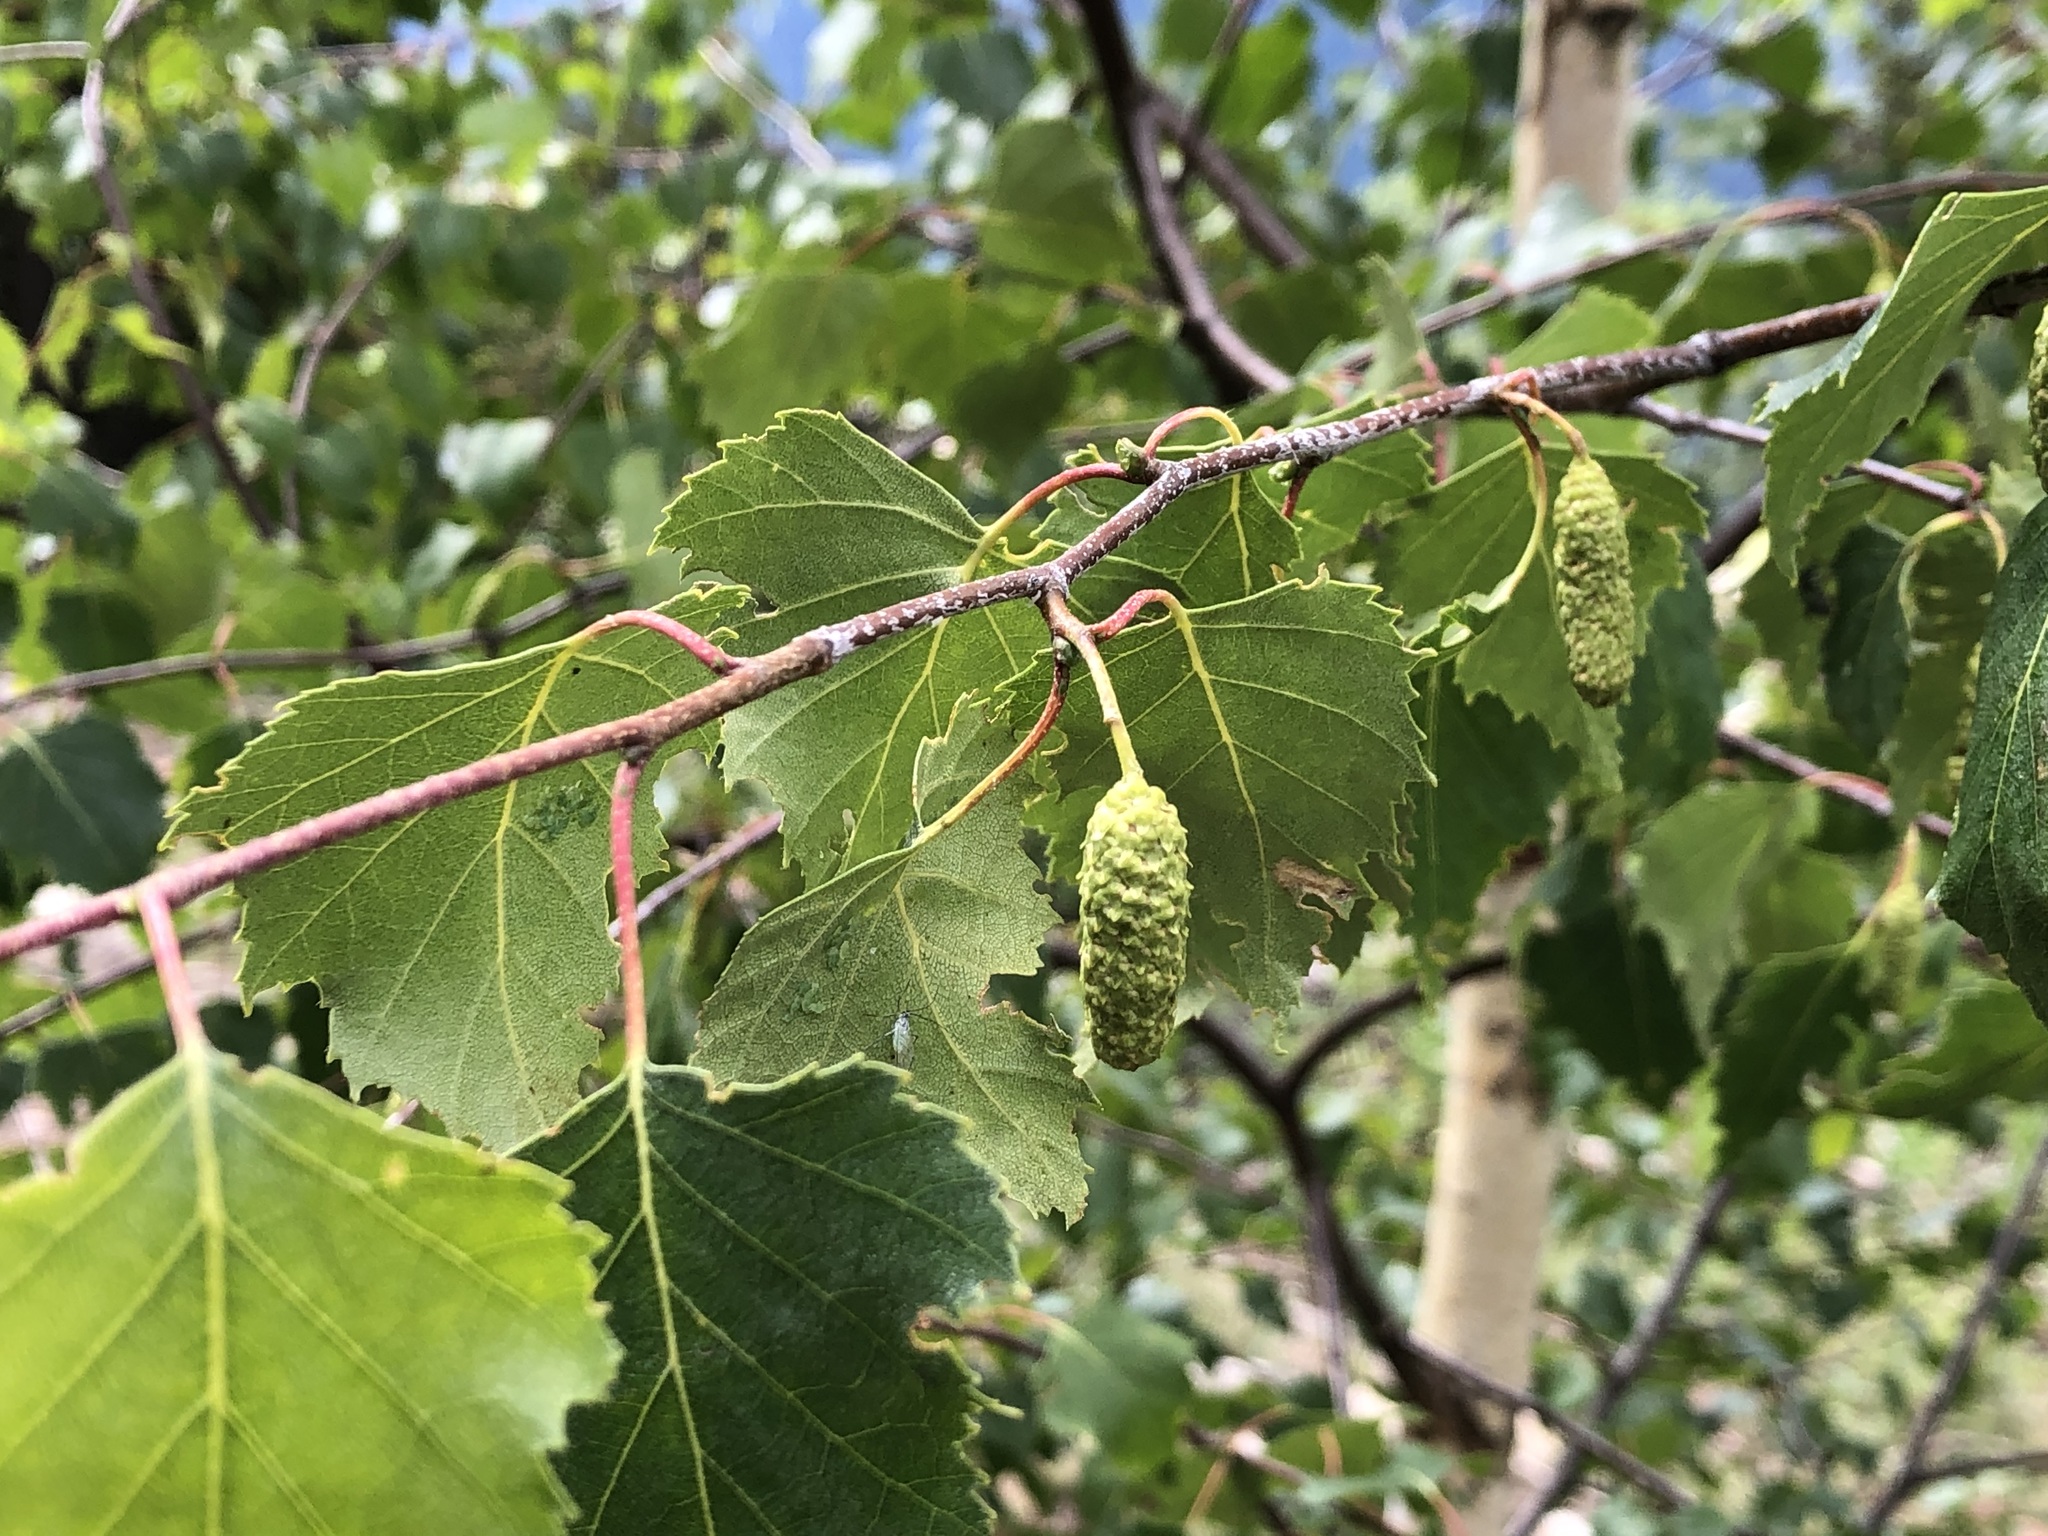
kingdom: Plantae
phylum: Tracheophyta
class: Magnoliopsida
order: Fagales
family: Betulaceae
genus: Betula
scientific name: Betula pendula
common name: Silver birch
